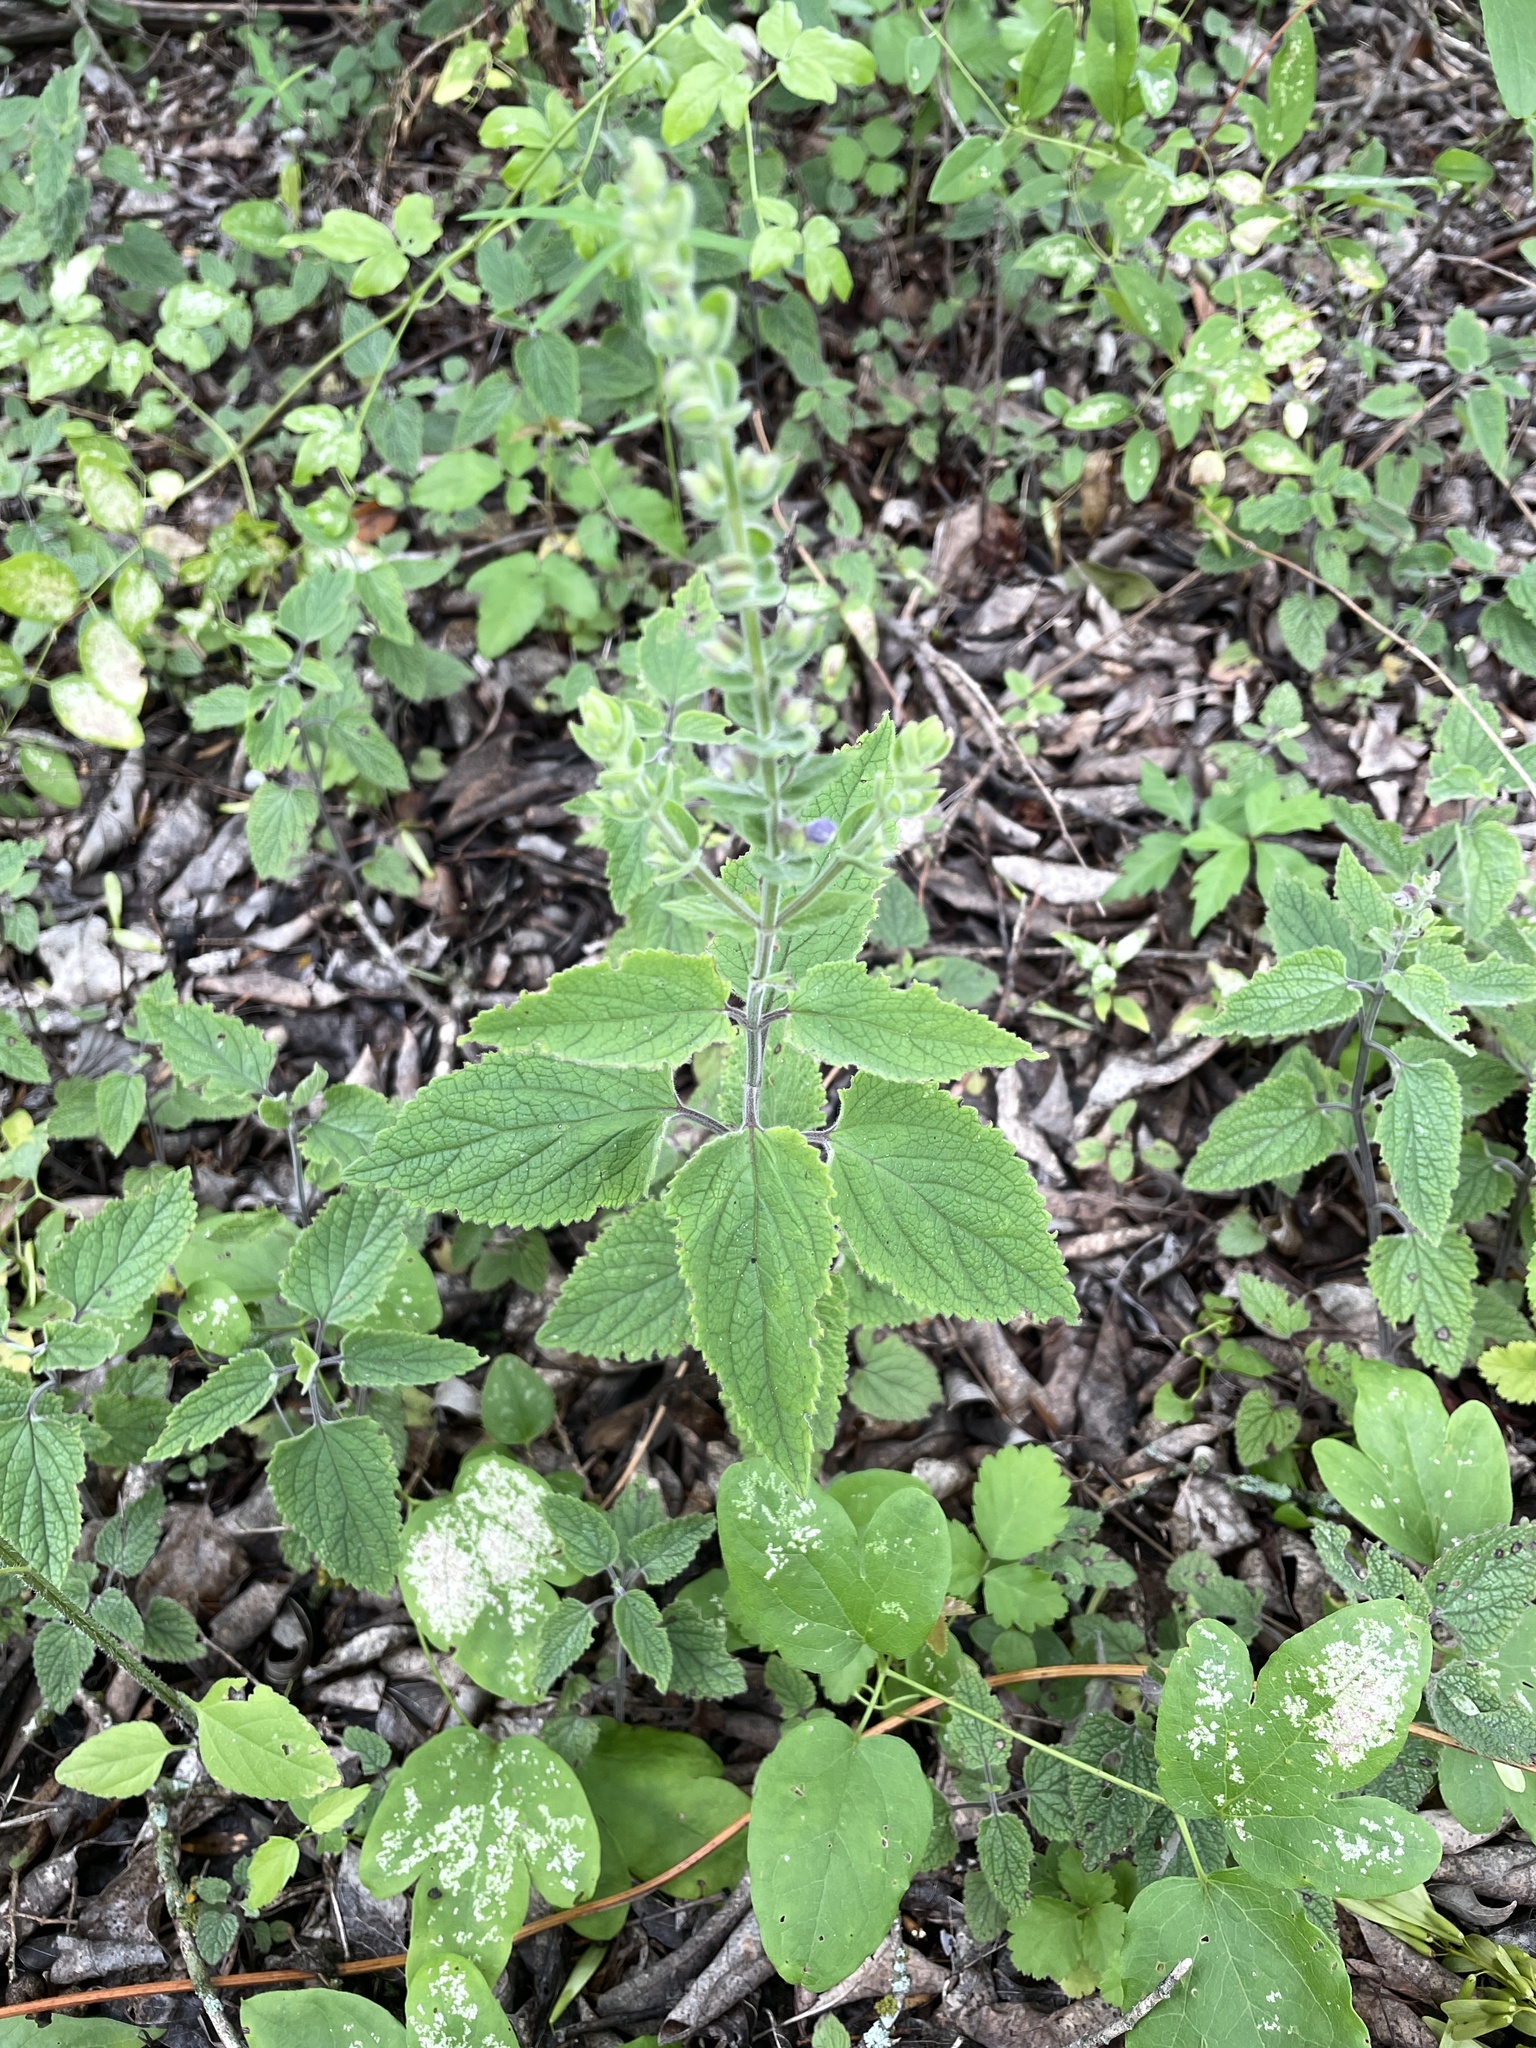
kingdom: Plantae
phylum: Tracheophyta
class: Magnoliopsida
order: Lamiales
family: Lamiaceae
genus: Scutellaria
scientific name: Scutellaria ovata
